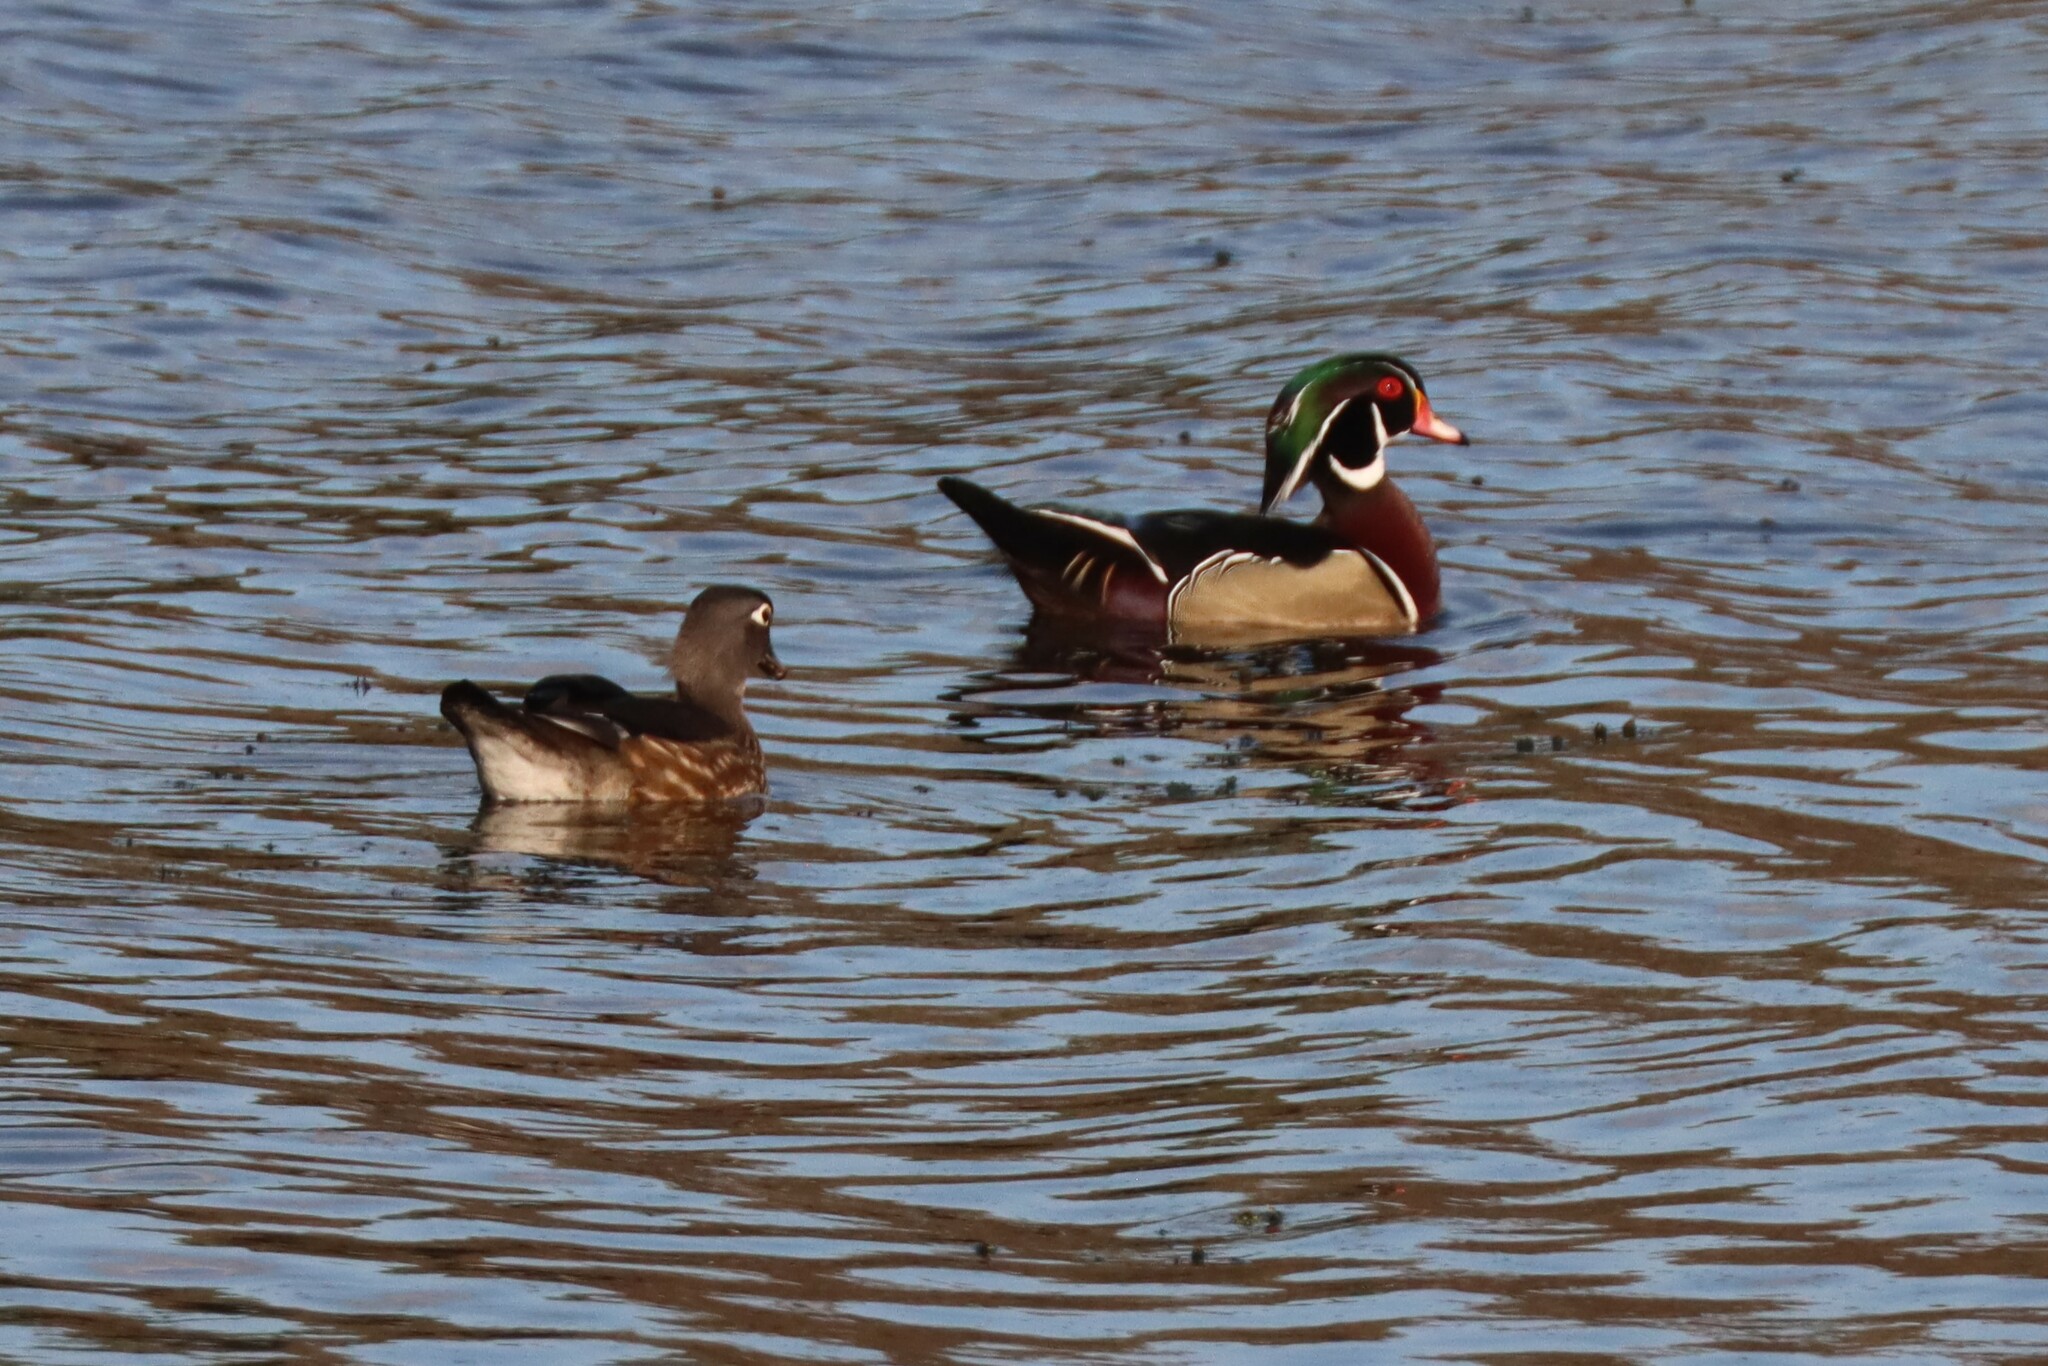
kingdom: Animalia
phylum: Chordata
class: Aves
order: Anseriformes
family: Anatidae
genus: Aix
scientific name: Aix sponsa
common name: Wood duck
